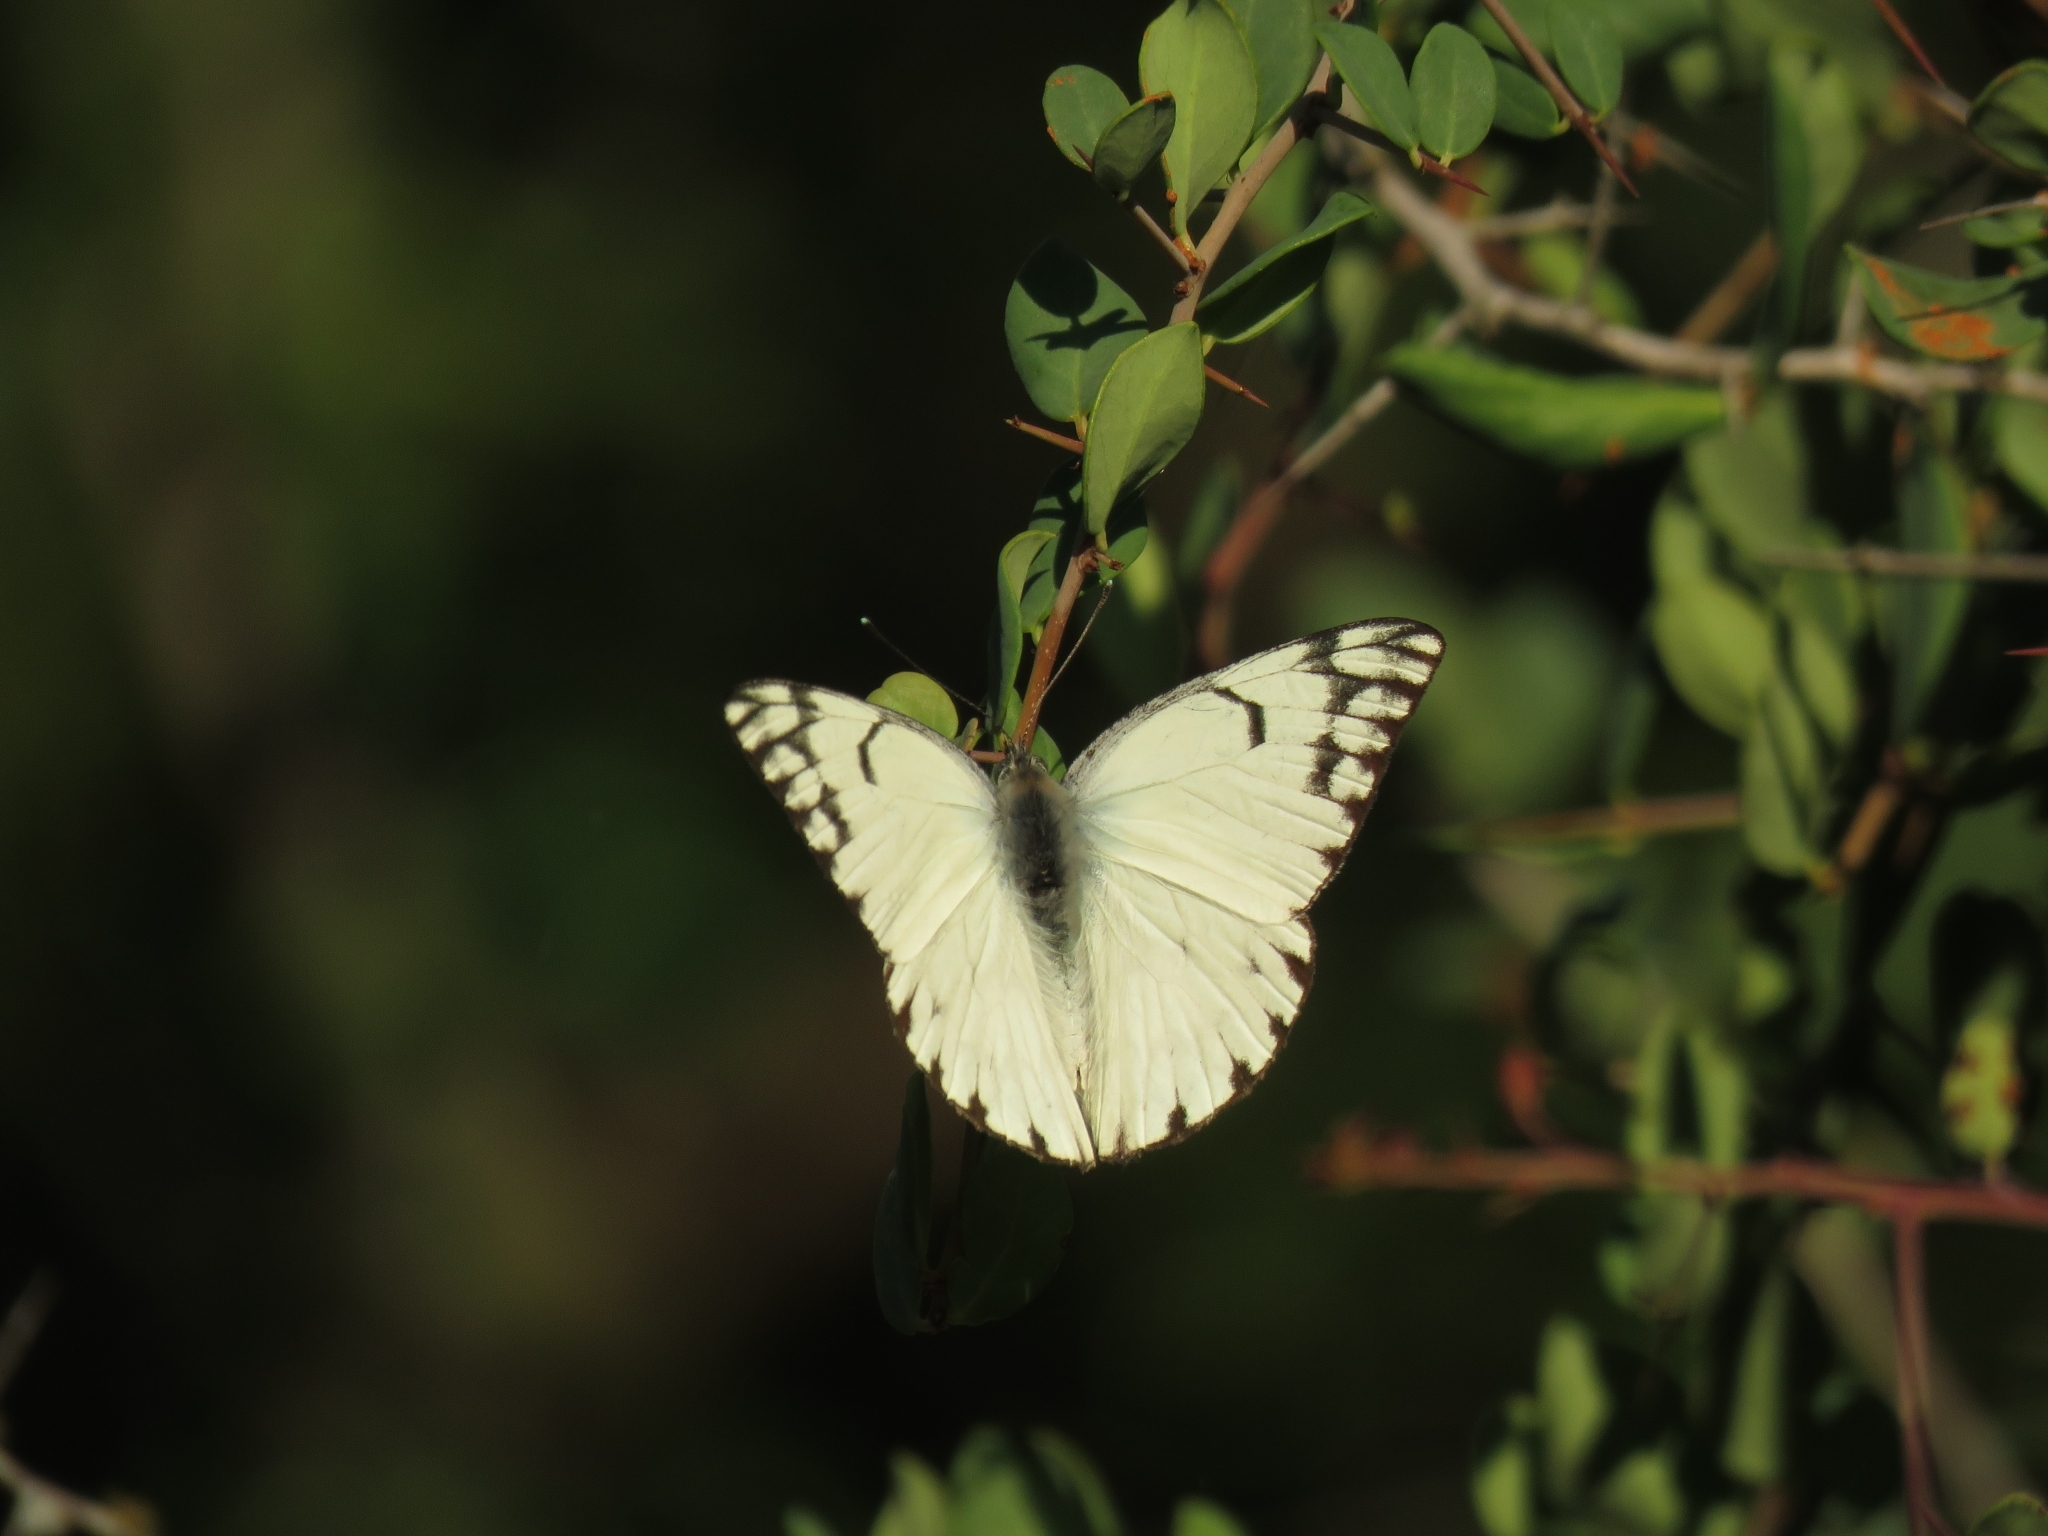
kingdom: Animalia
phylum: Arthropoda
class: Insecta
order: Lepidoptera
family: Pieridae
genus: Belenois
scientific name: Belenois gidica
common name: Pointed caper white
